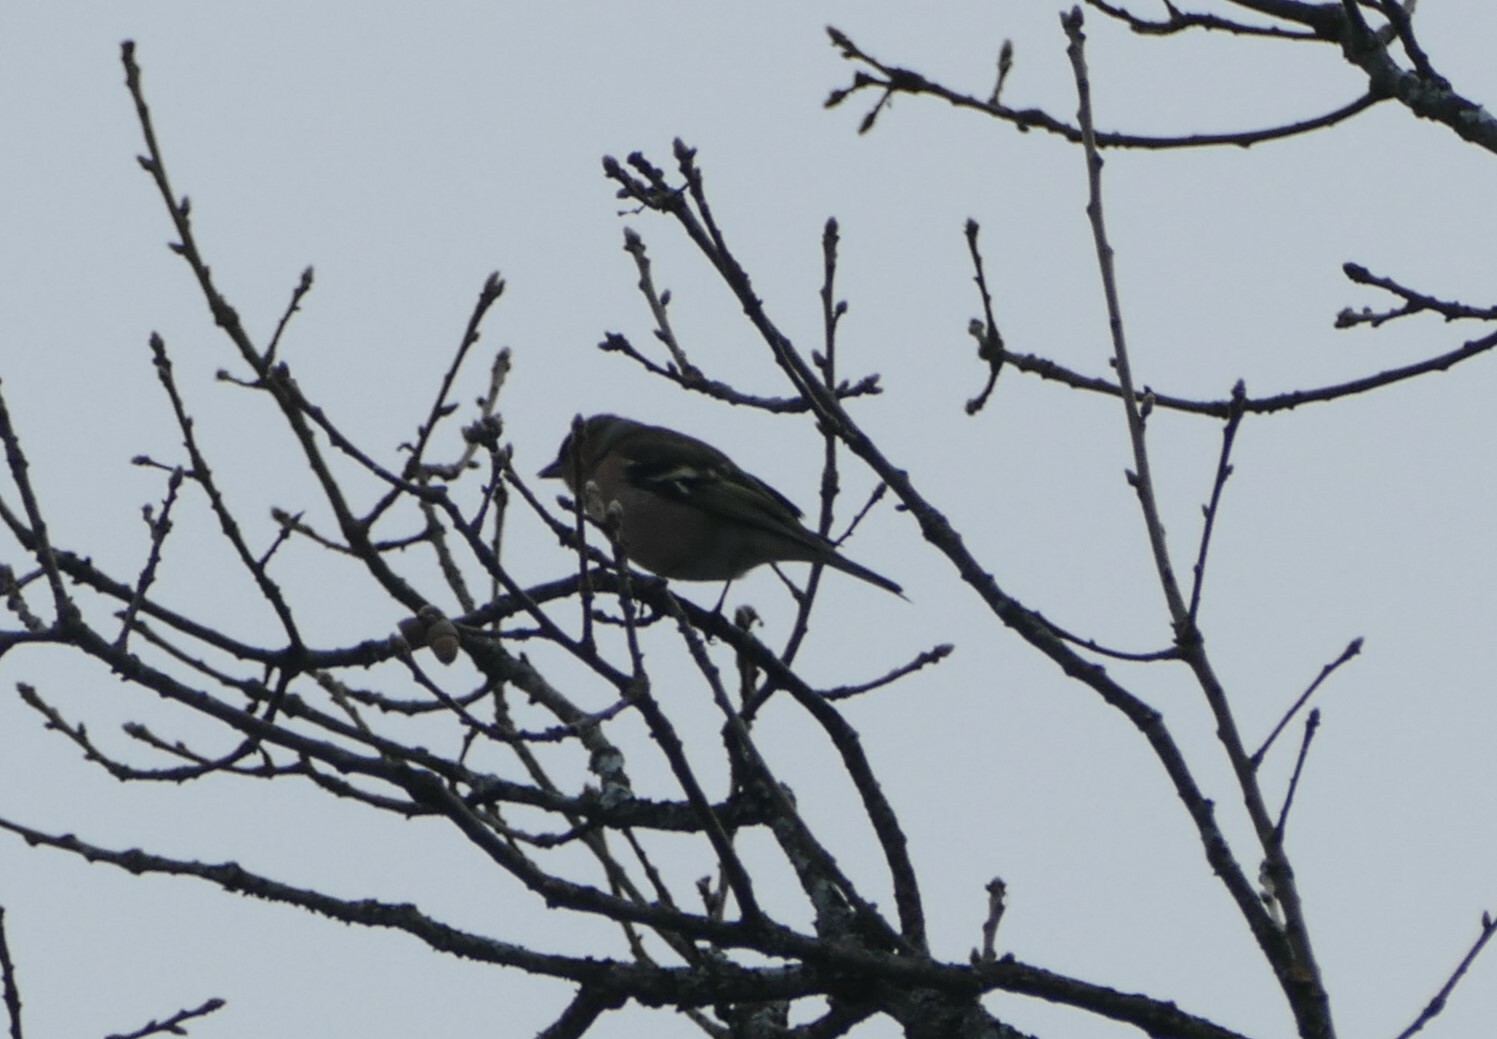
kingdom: Animalia
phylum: Chordata
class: Aves
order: Passeriformes
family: Fringillidae
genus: Fringilla
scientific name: Fringilla coelebs
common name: Common chaffinch
